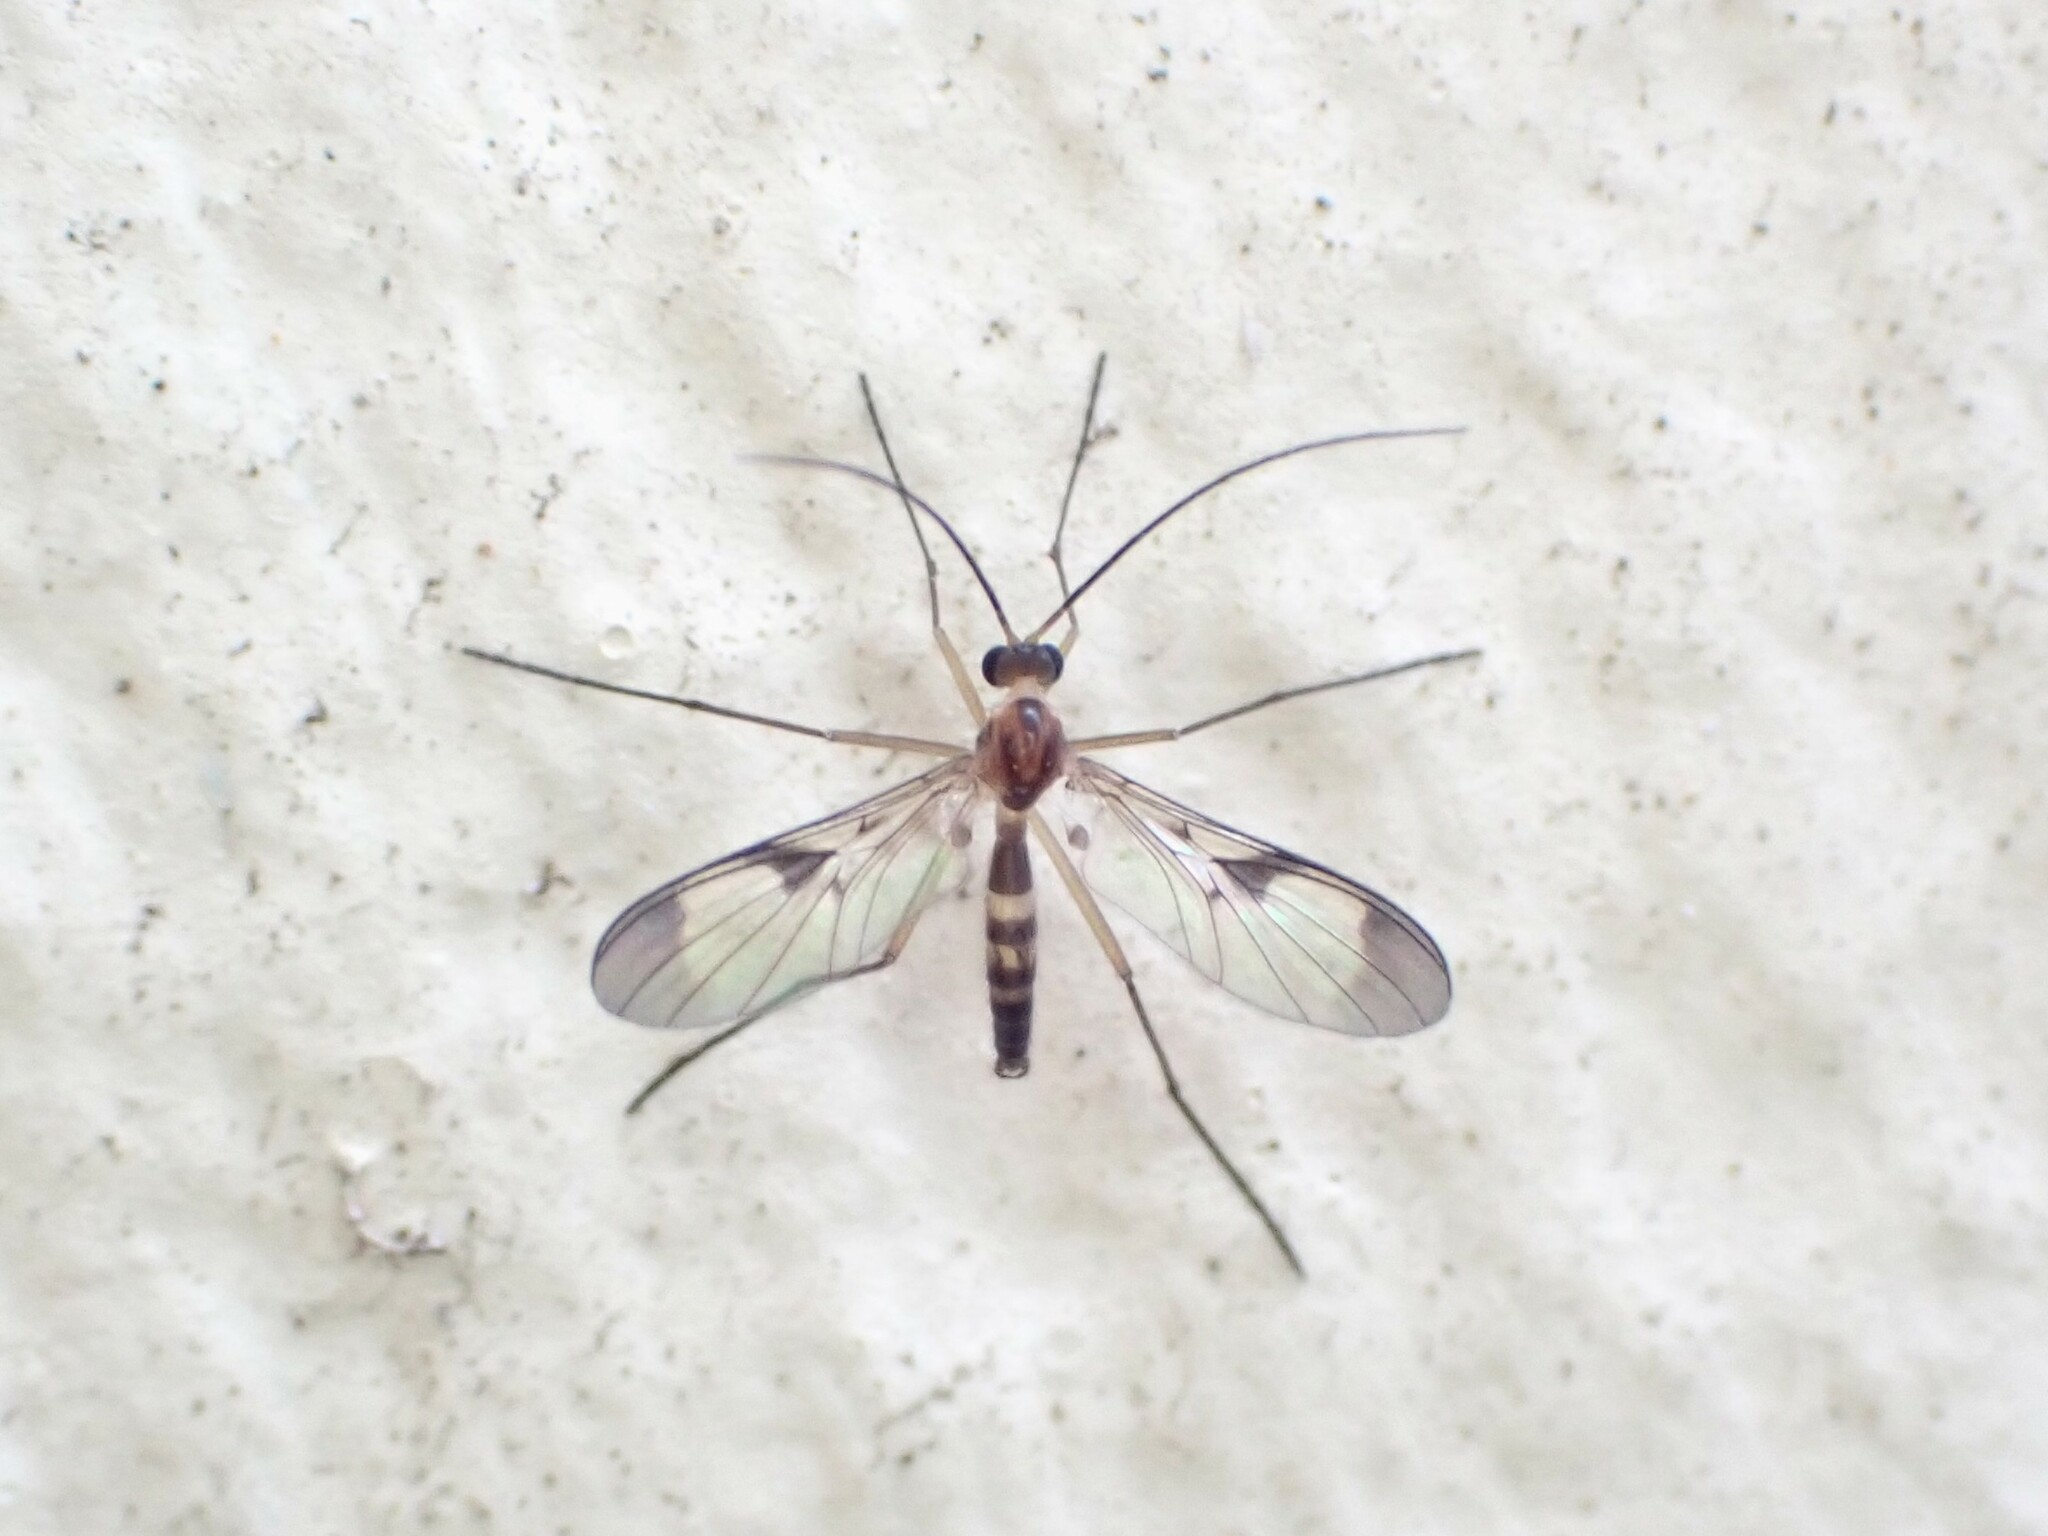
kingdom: Animalia
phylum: Arthropoda
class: Insecta
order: Diptera
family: Keroplatidae
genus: Macrocera
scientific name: Macrocera scoparia
